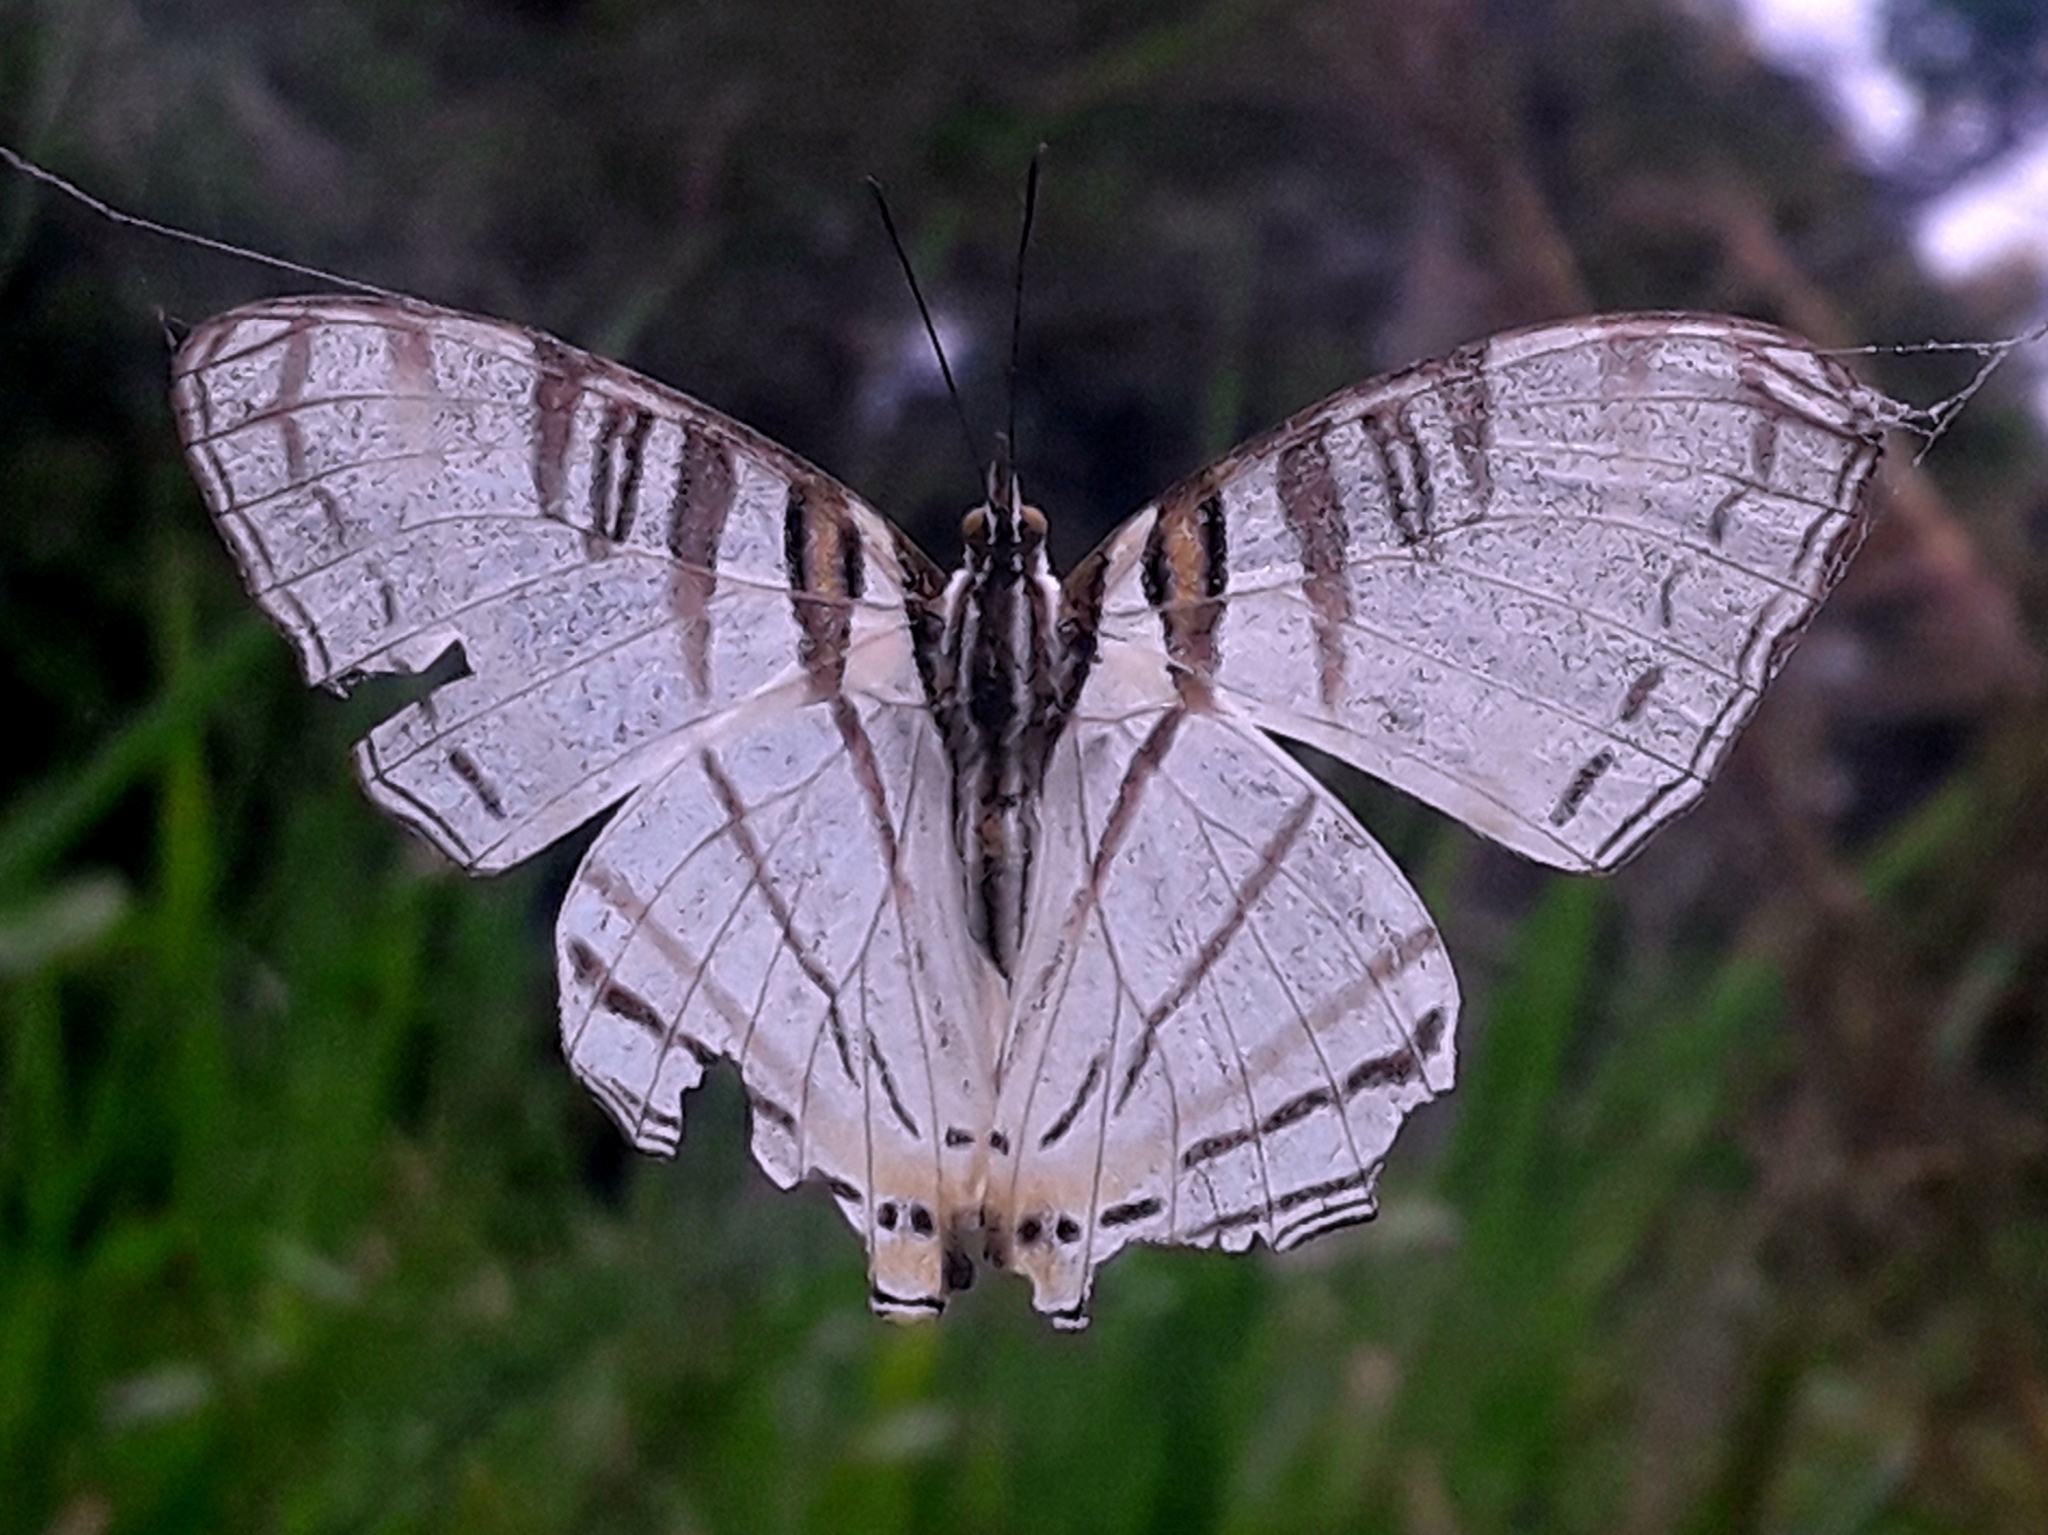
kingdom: Animalia
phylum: Arthropoda
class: Insecta
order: Lepidoptera
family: Nymphalidae
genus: Marpesia
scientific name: Marpesia camillus
